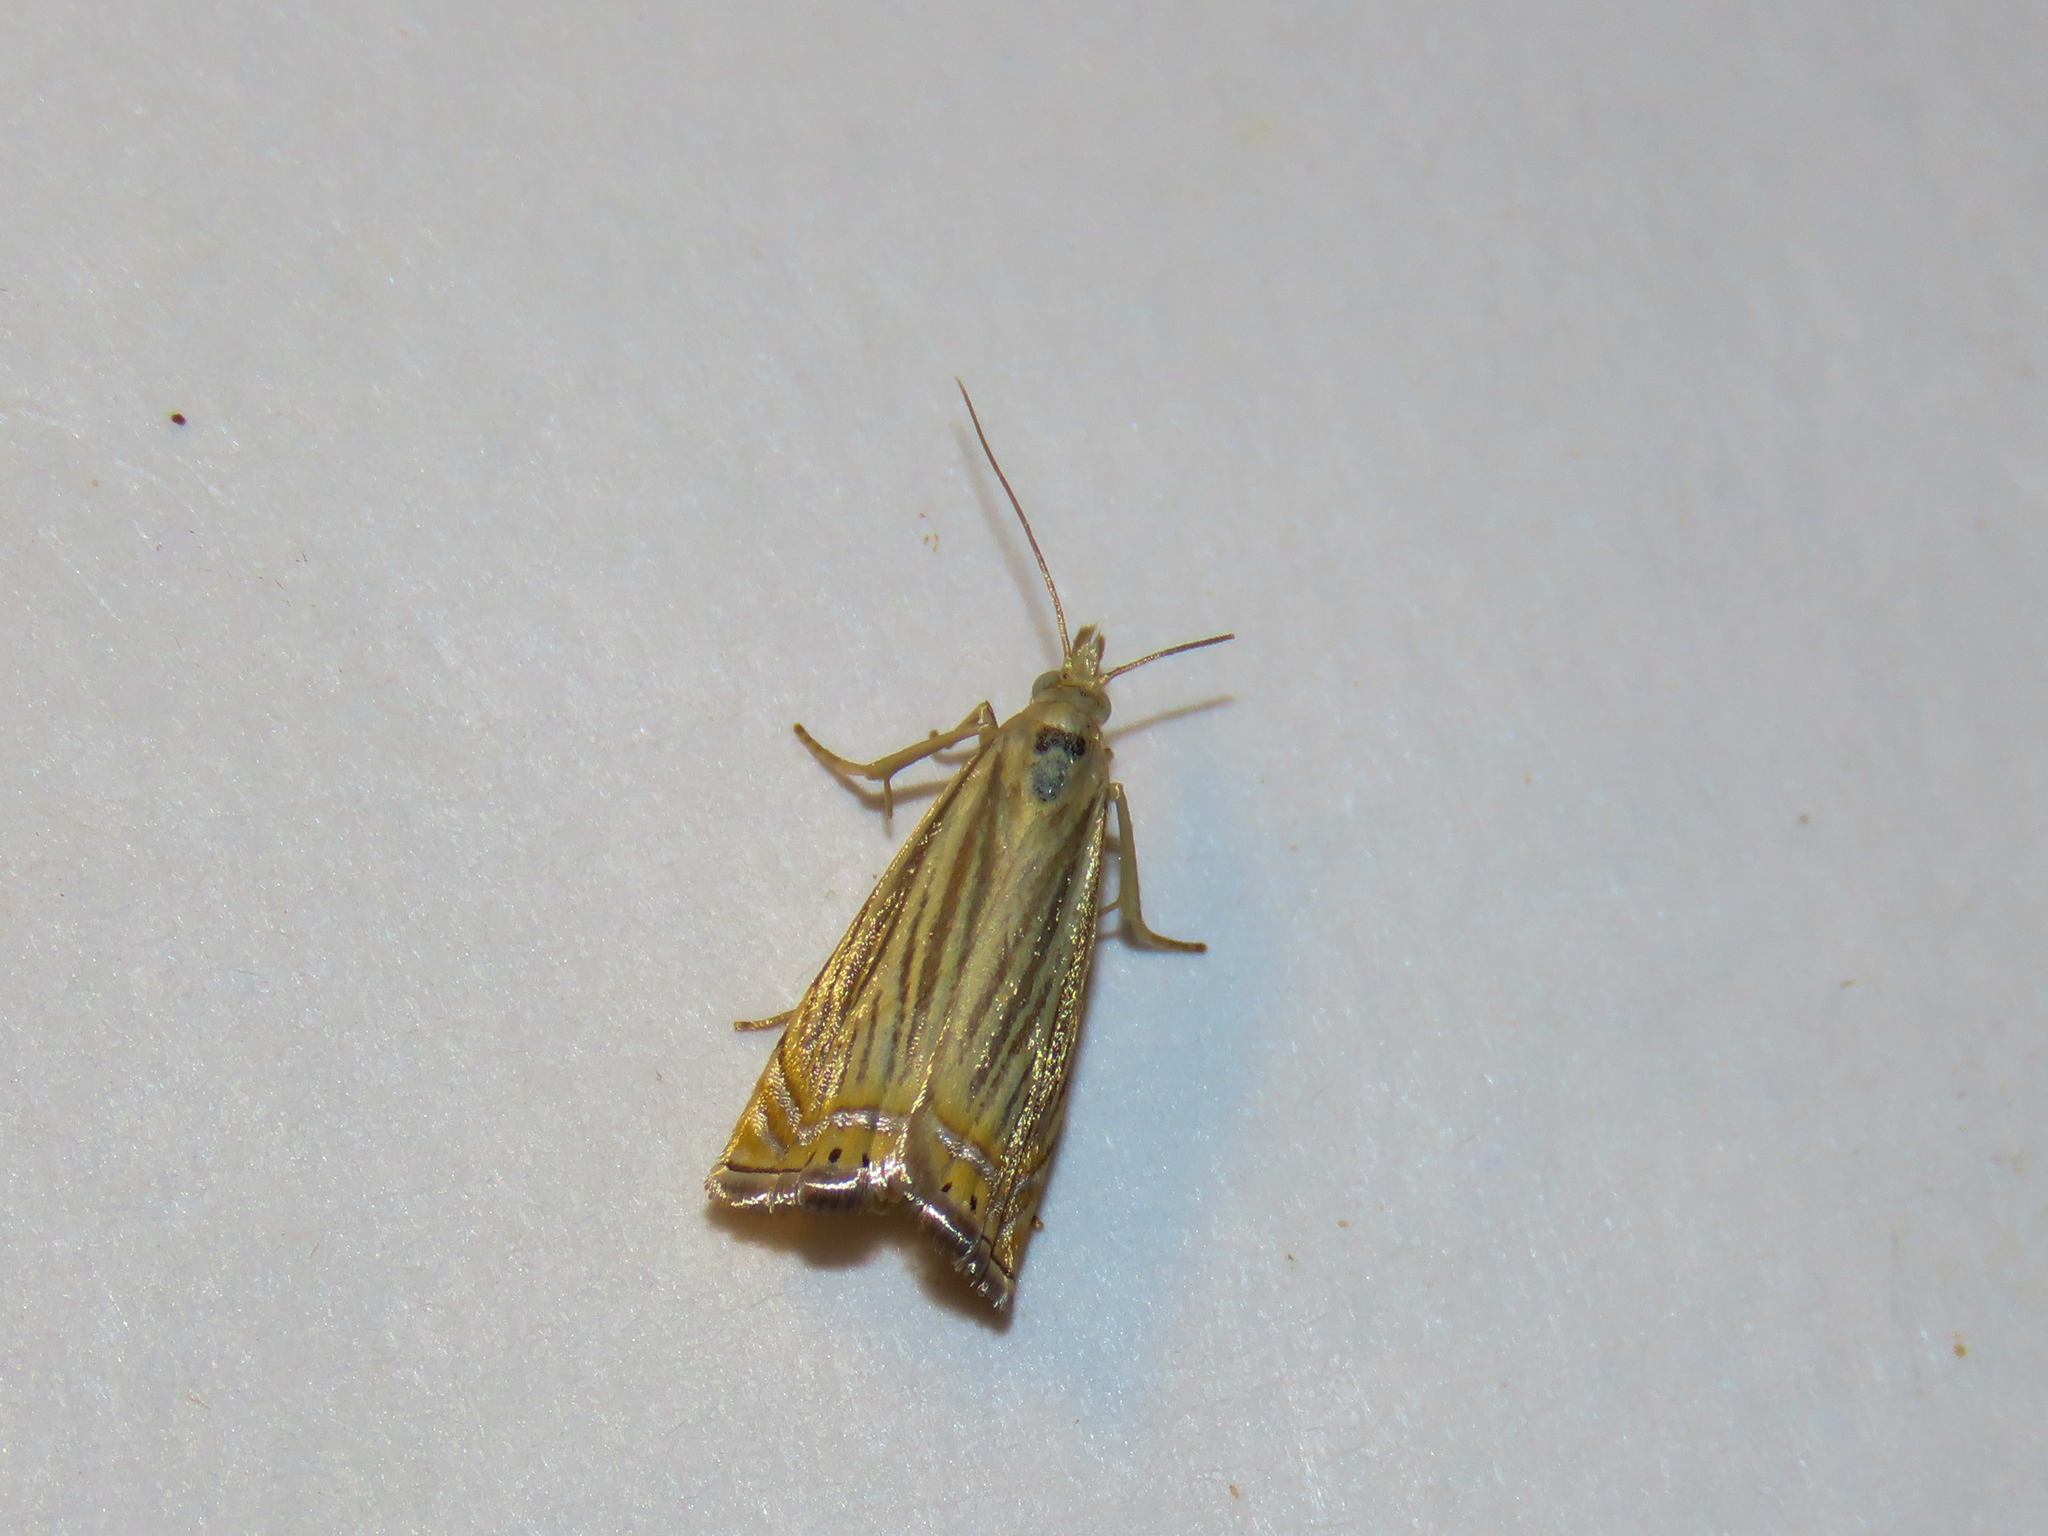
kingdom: Animalia
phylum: Arthropoda
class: Insecta
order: Lepidoptera
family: Crambidae
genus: Chrysoteuchia
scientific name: Chrysoteuchia topiarius
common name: Topiary grass-veneer
